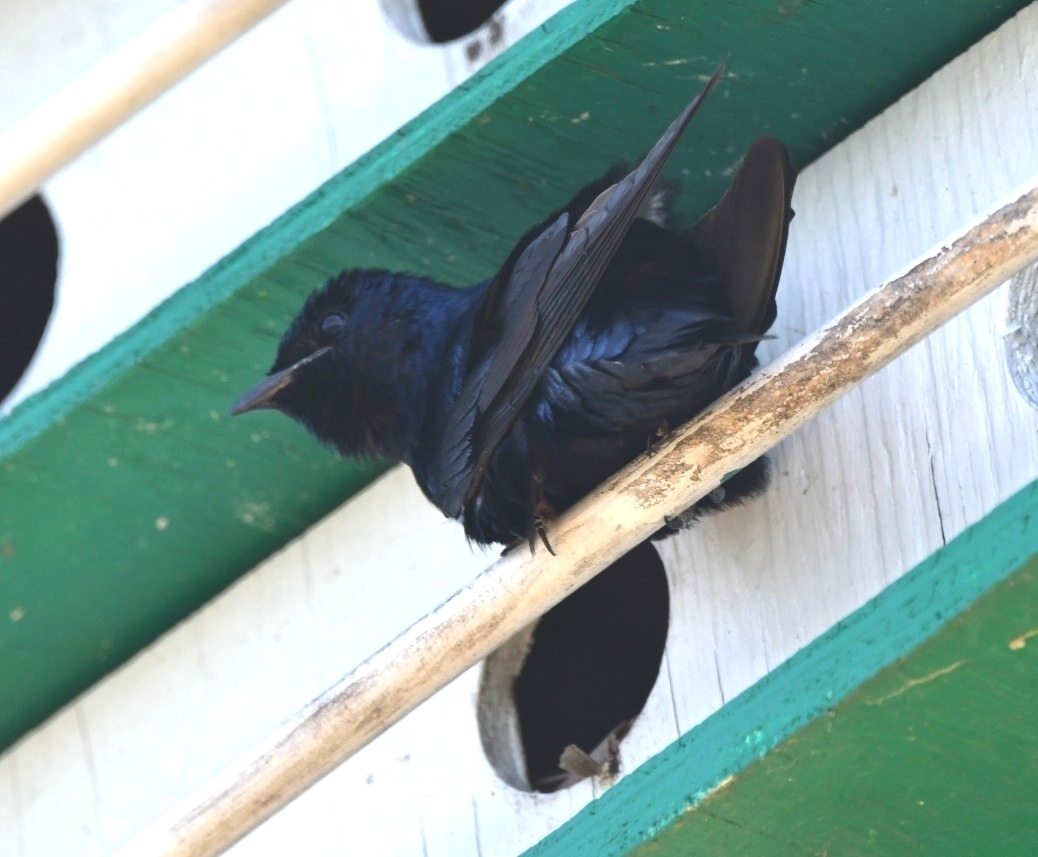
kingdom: Animalia
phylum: Chordata
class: Aves
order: Passeriformes
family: Hirundinidae
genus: Progne
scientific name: Progne subis
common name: Purple martin
